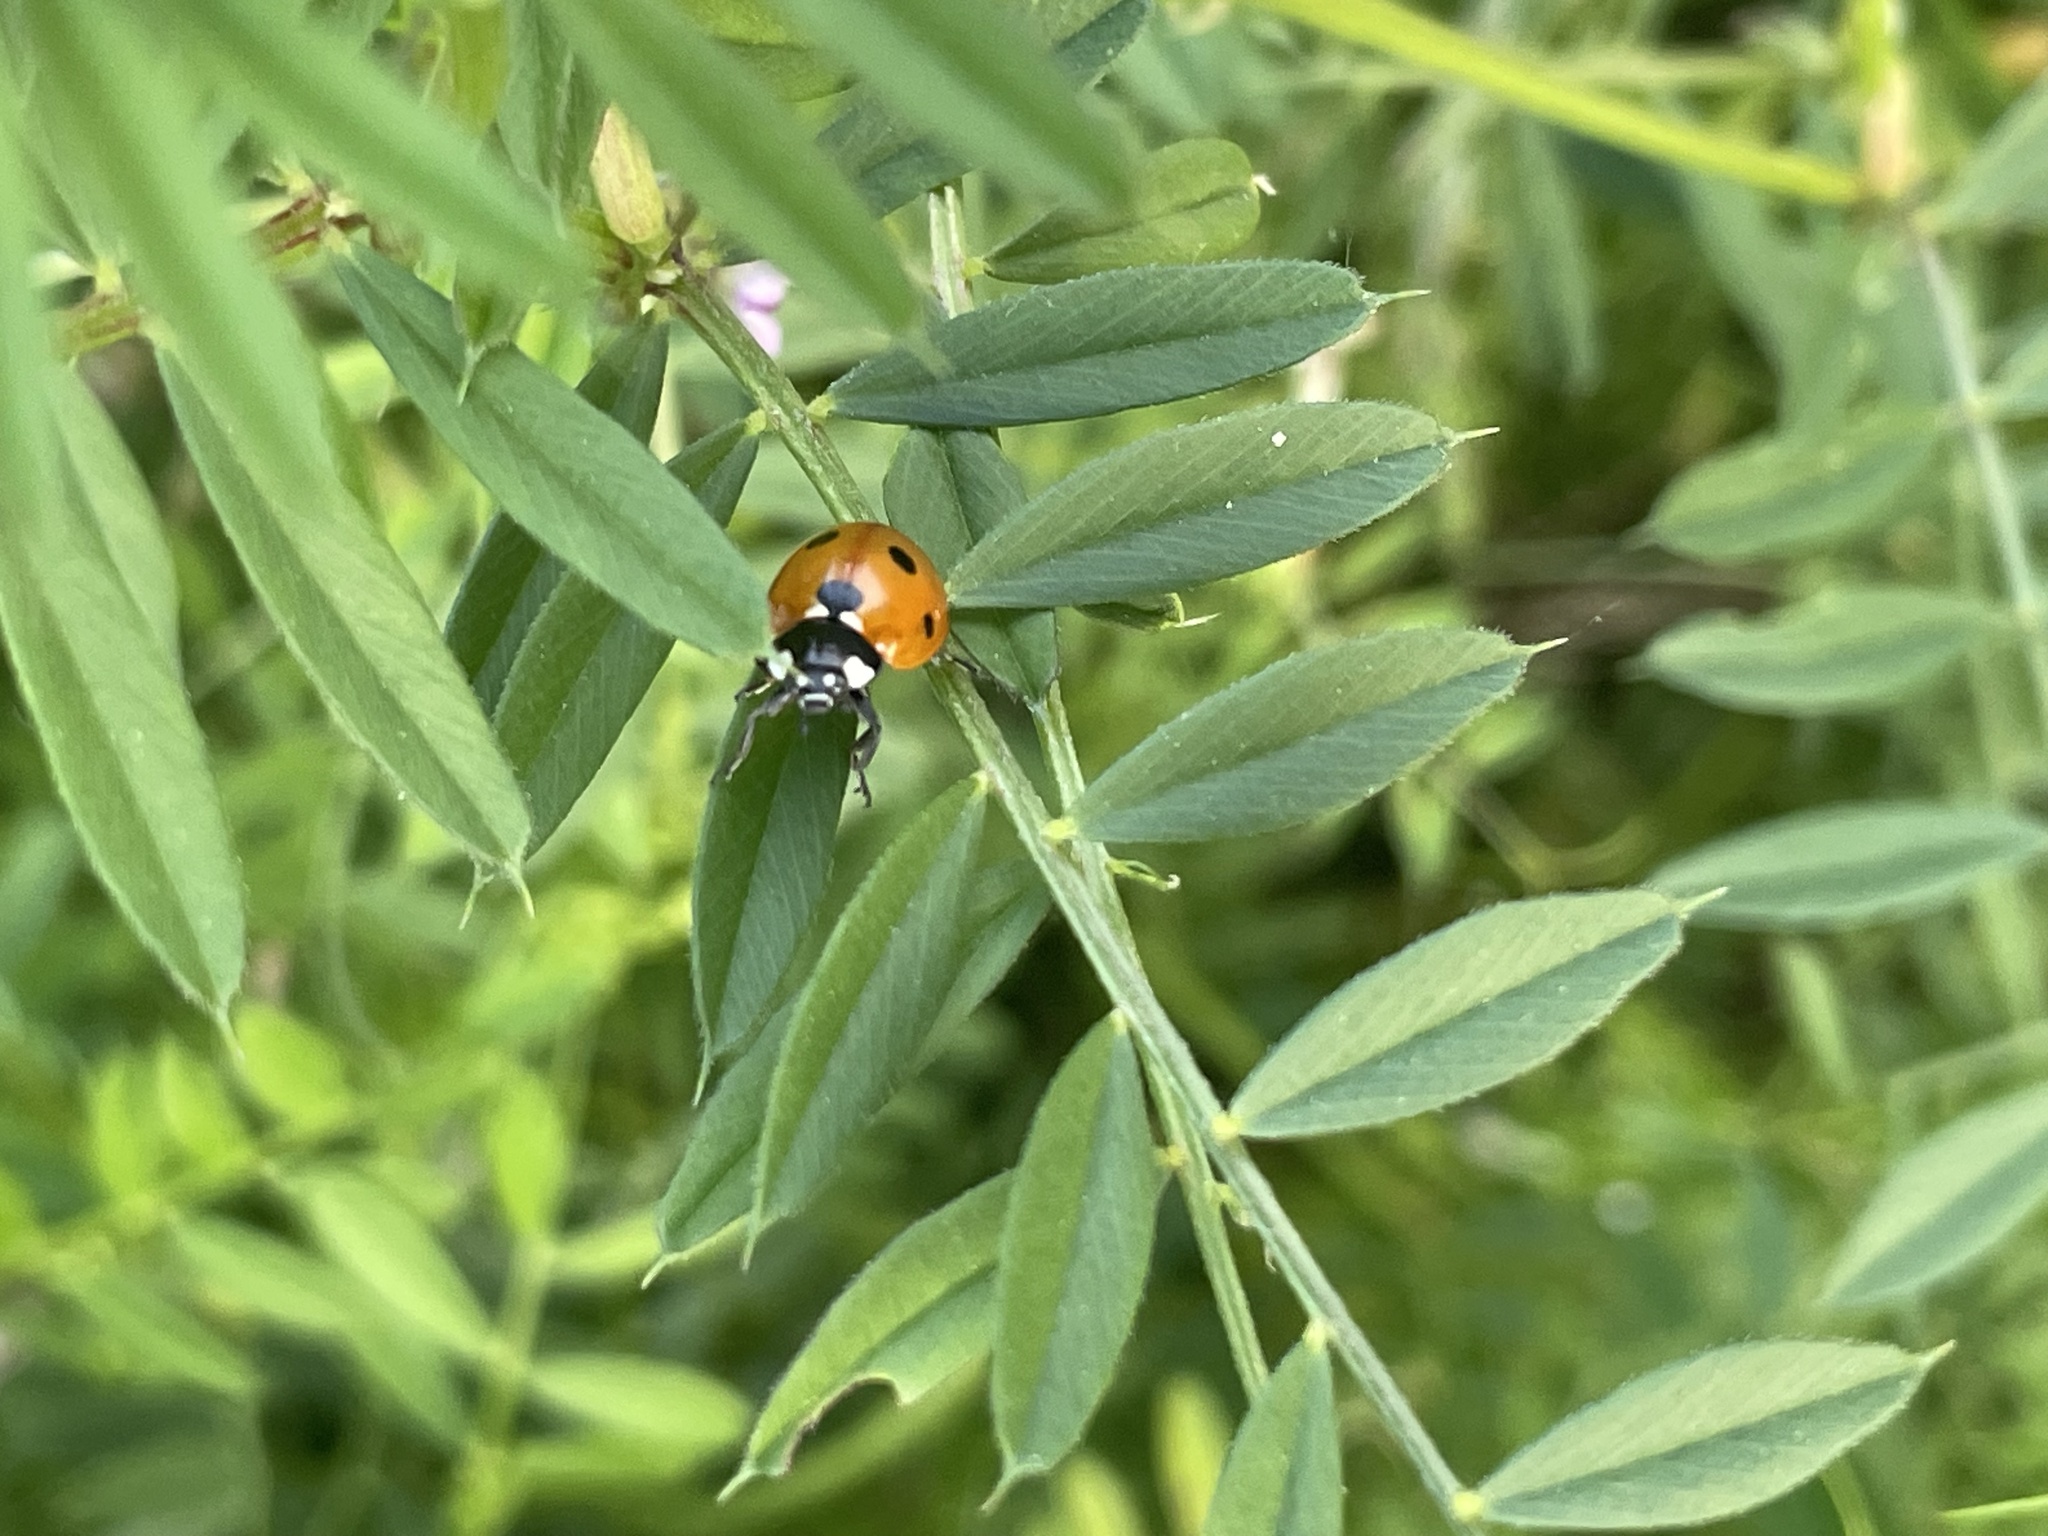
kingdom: Animalia
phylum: Arthropoda
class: Insecta
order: Coleoptera
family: Coccinellidae
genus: Coccinella
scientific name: Coccinella septempunctata
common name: Sevenspotted lady beetle
